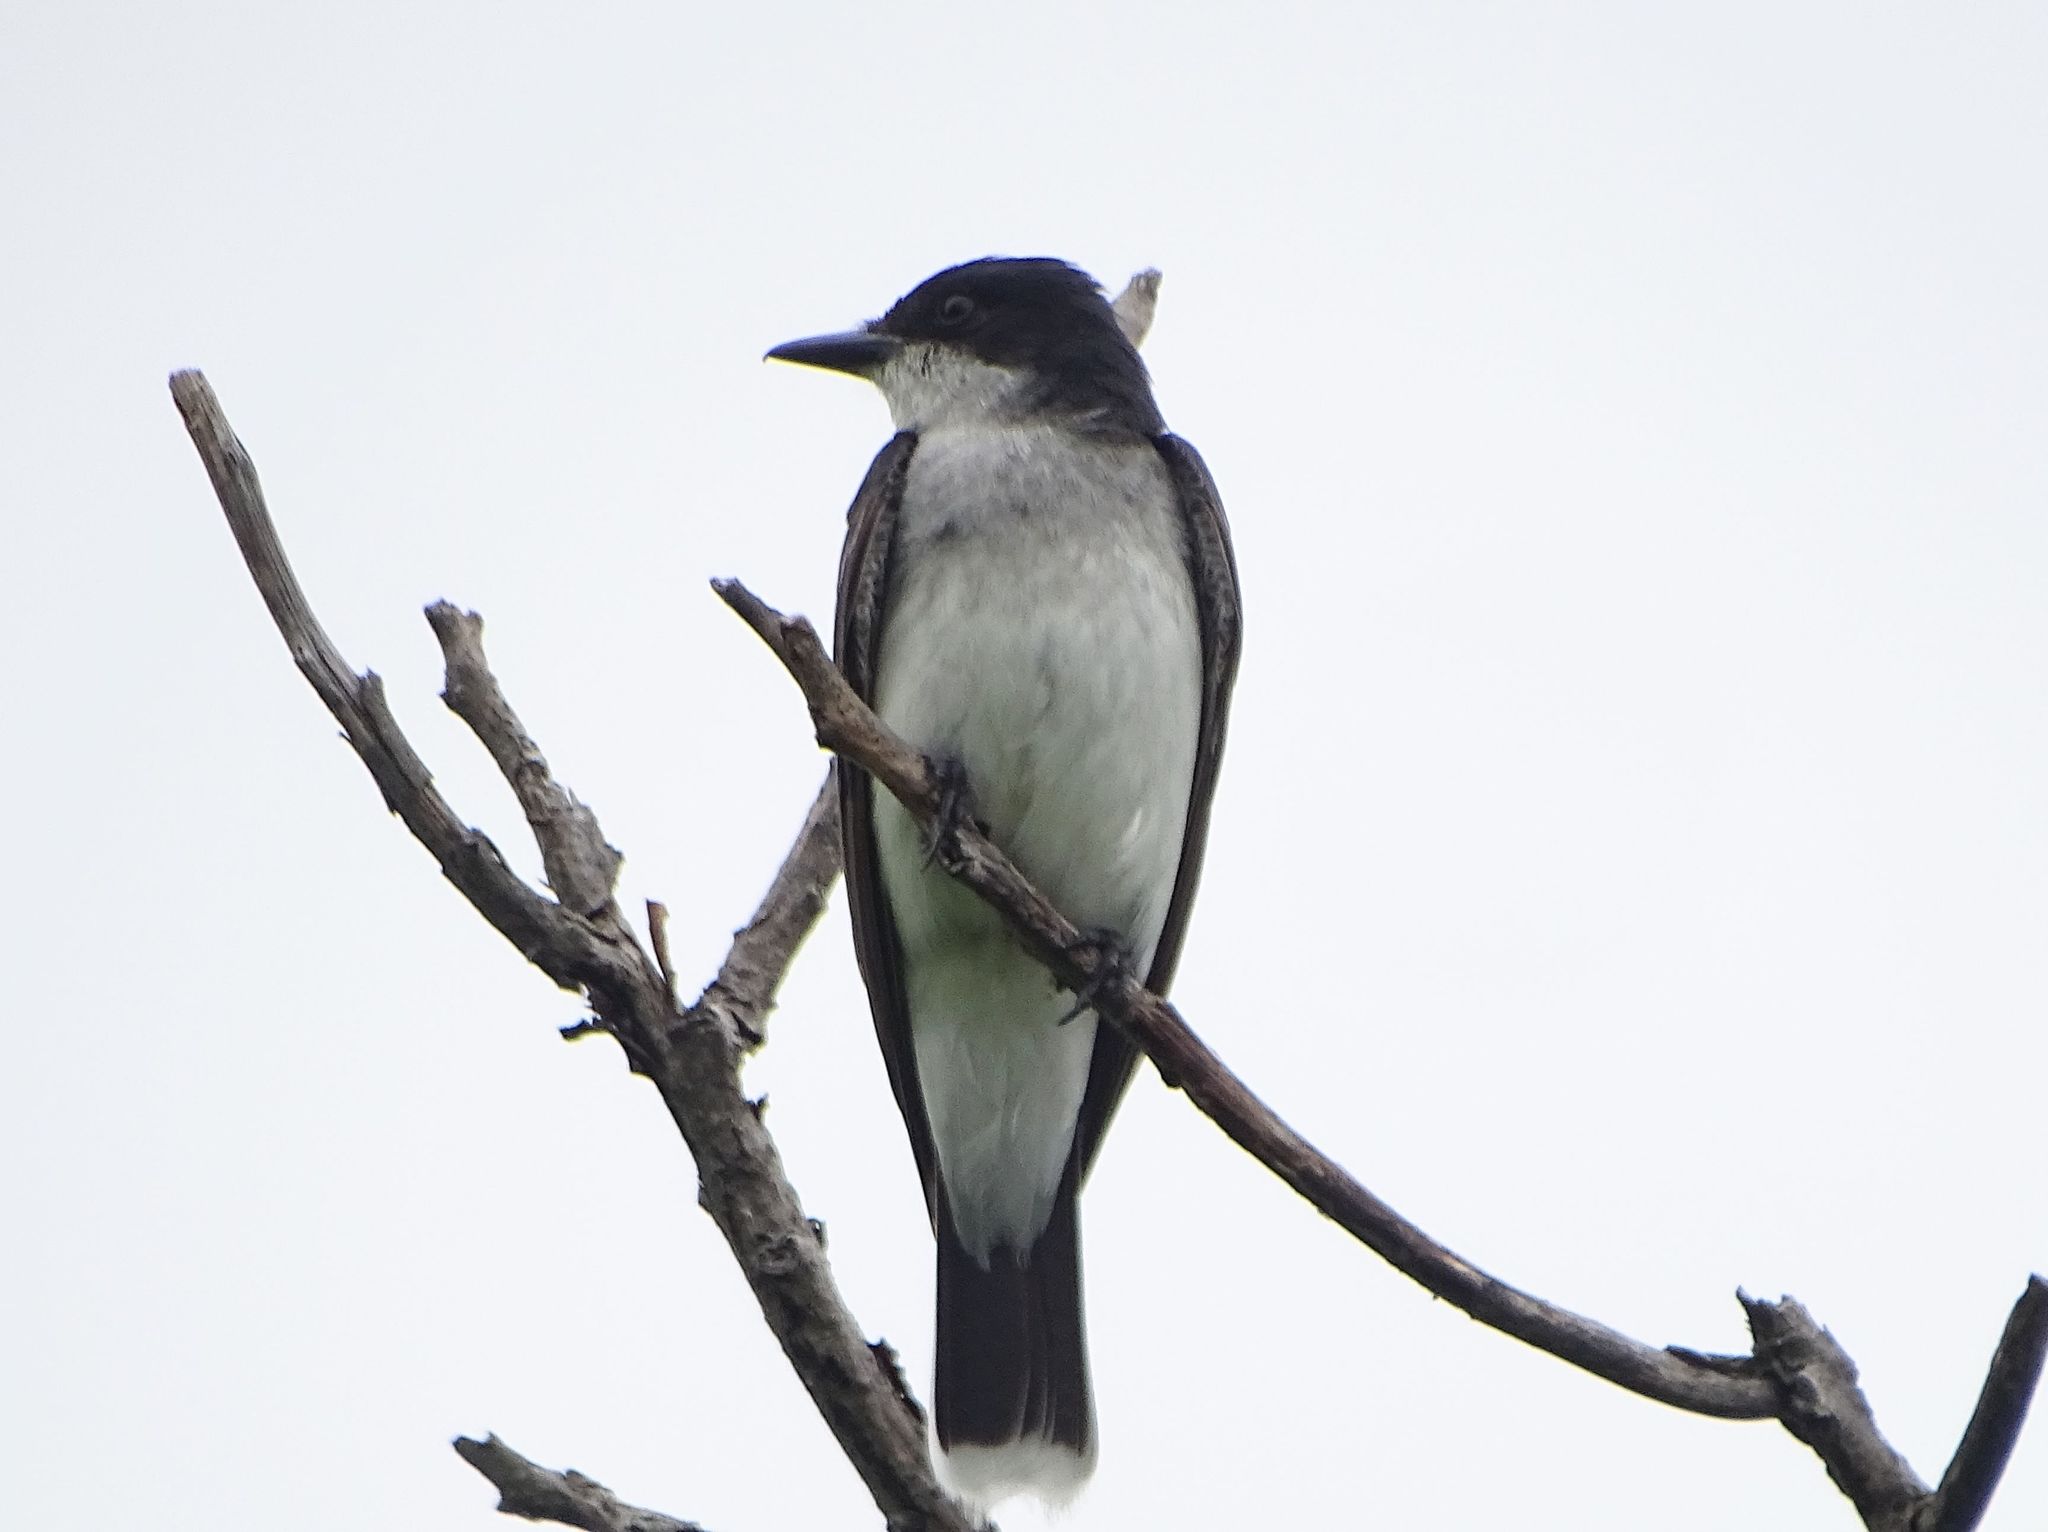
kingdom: Animalia
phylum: Chordata
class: Aves
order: Passeriformes
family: Tyrannidae
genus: Tyrannus
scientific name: Tyrannus tyrannus
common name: Eastern kingbird
